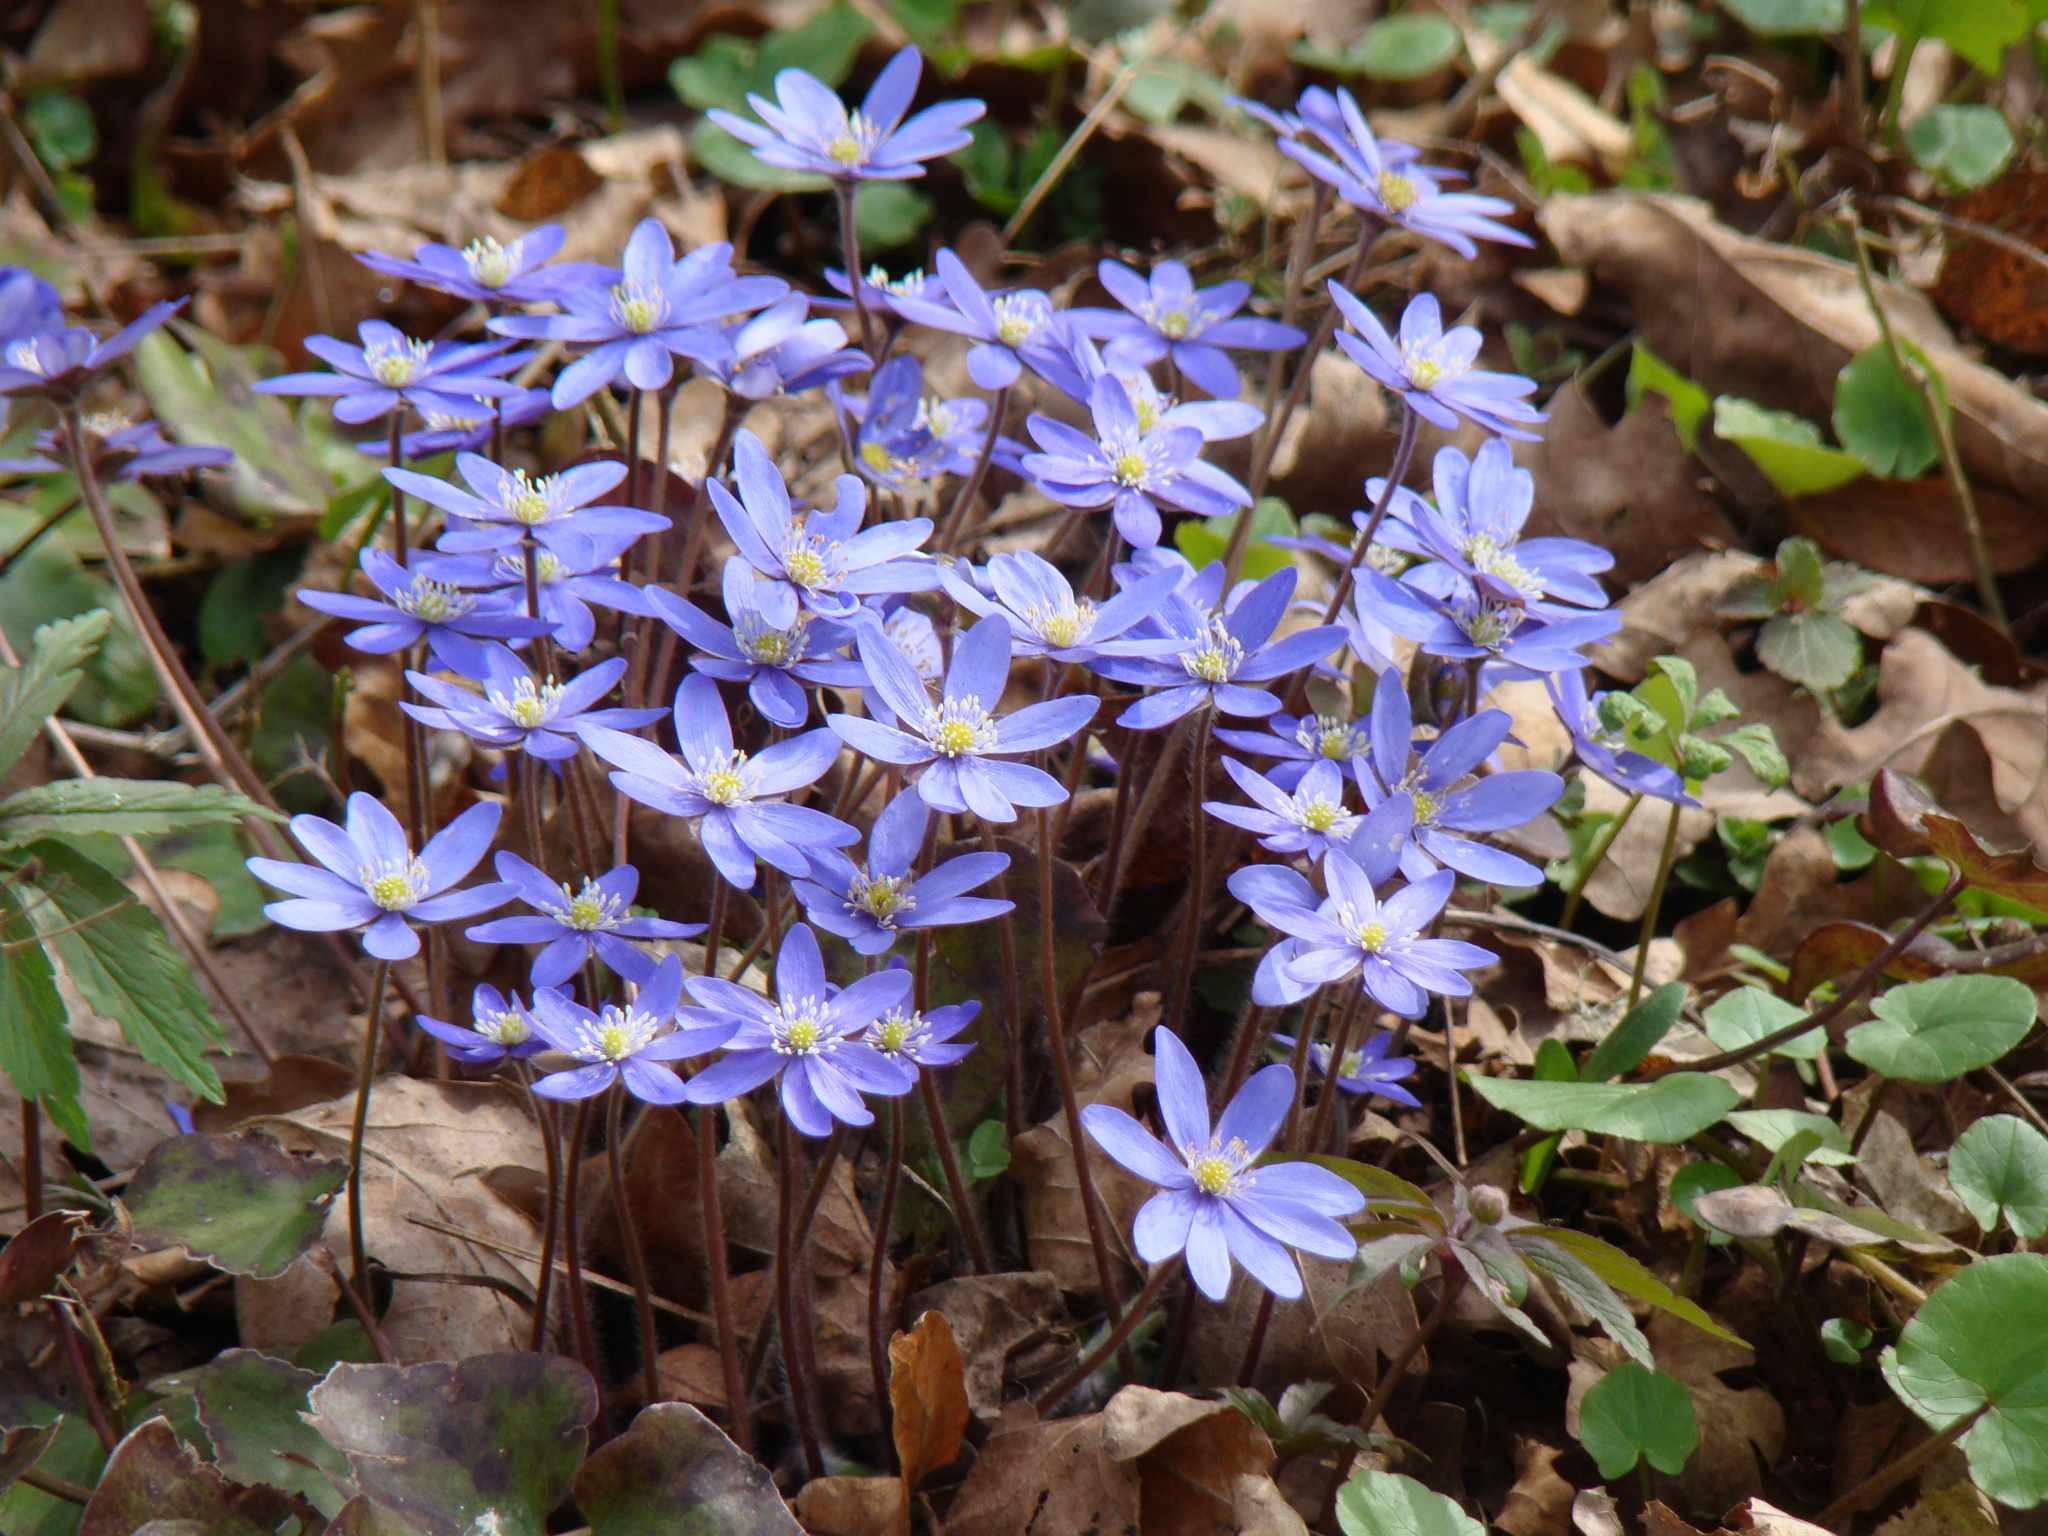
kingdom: Plantae
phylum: Tracheophyta
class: Magnoliopsida
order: Ranunculales
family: Ranunculaceae
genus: Hepatica
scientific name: Hepatica nobilis
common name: Liverleaf
